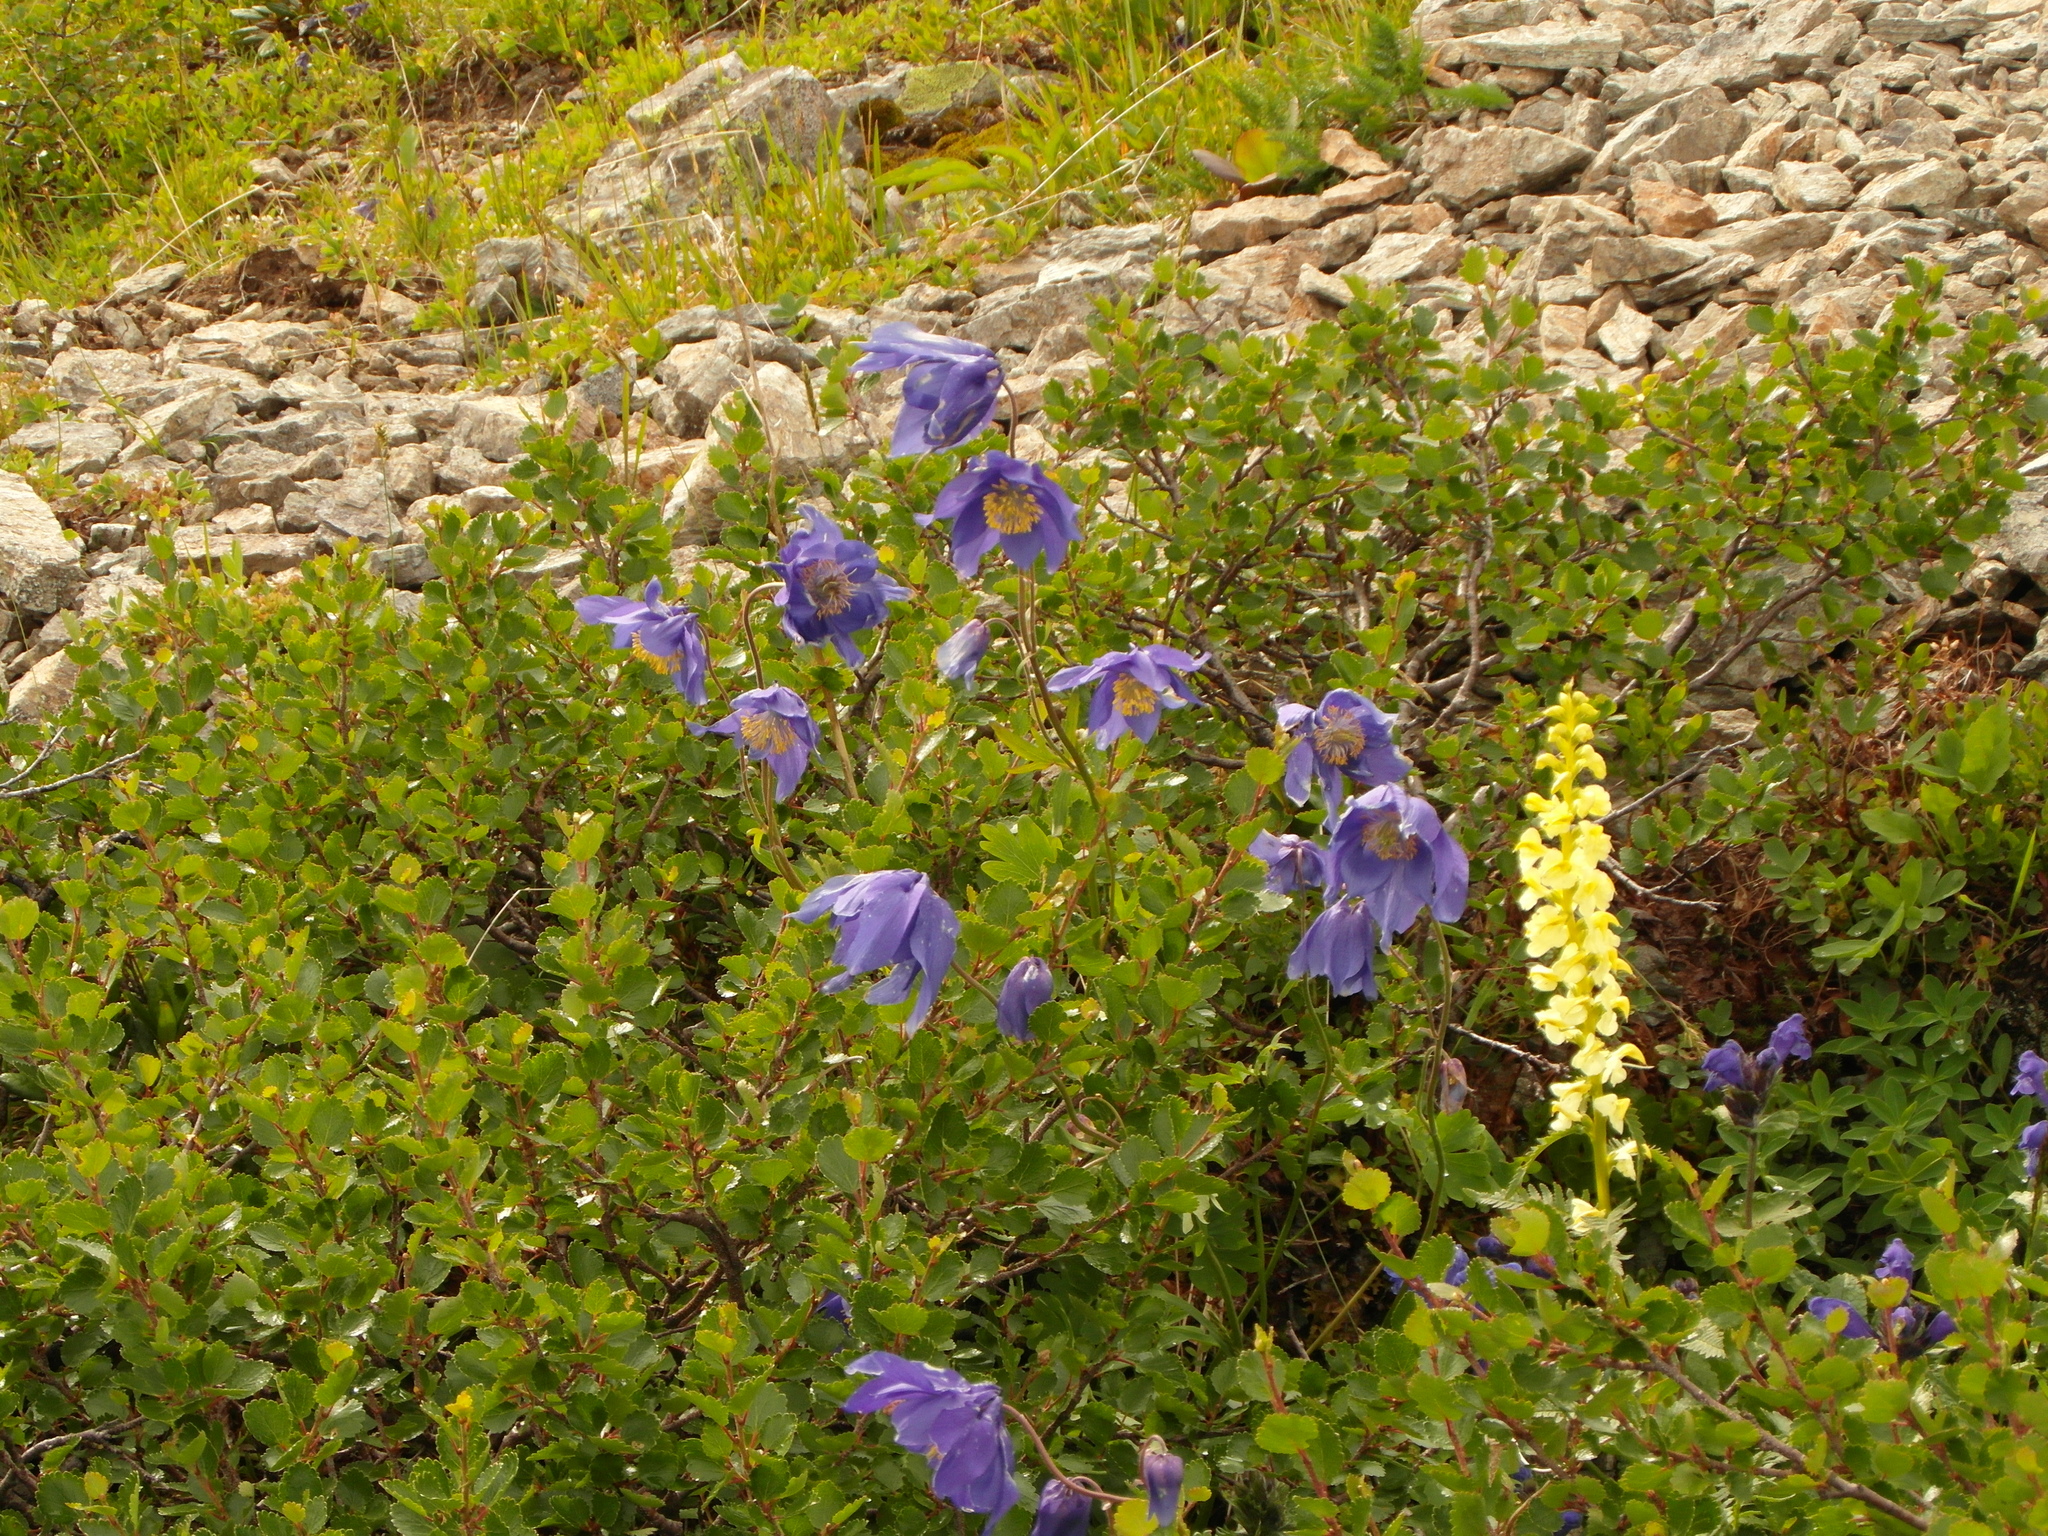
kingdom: Plantae
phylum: Tracheophyta
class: Magnoliopsida
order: Fagales
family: Betulaceae
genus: Betula
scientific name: Betula glandulosa
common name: Dwarf birch
